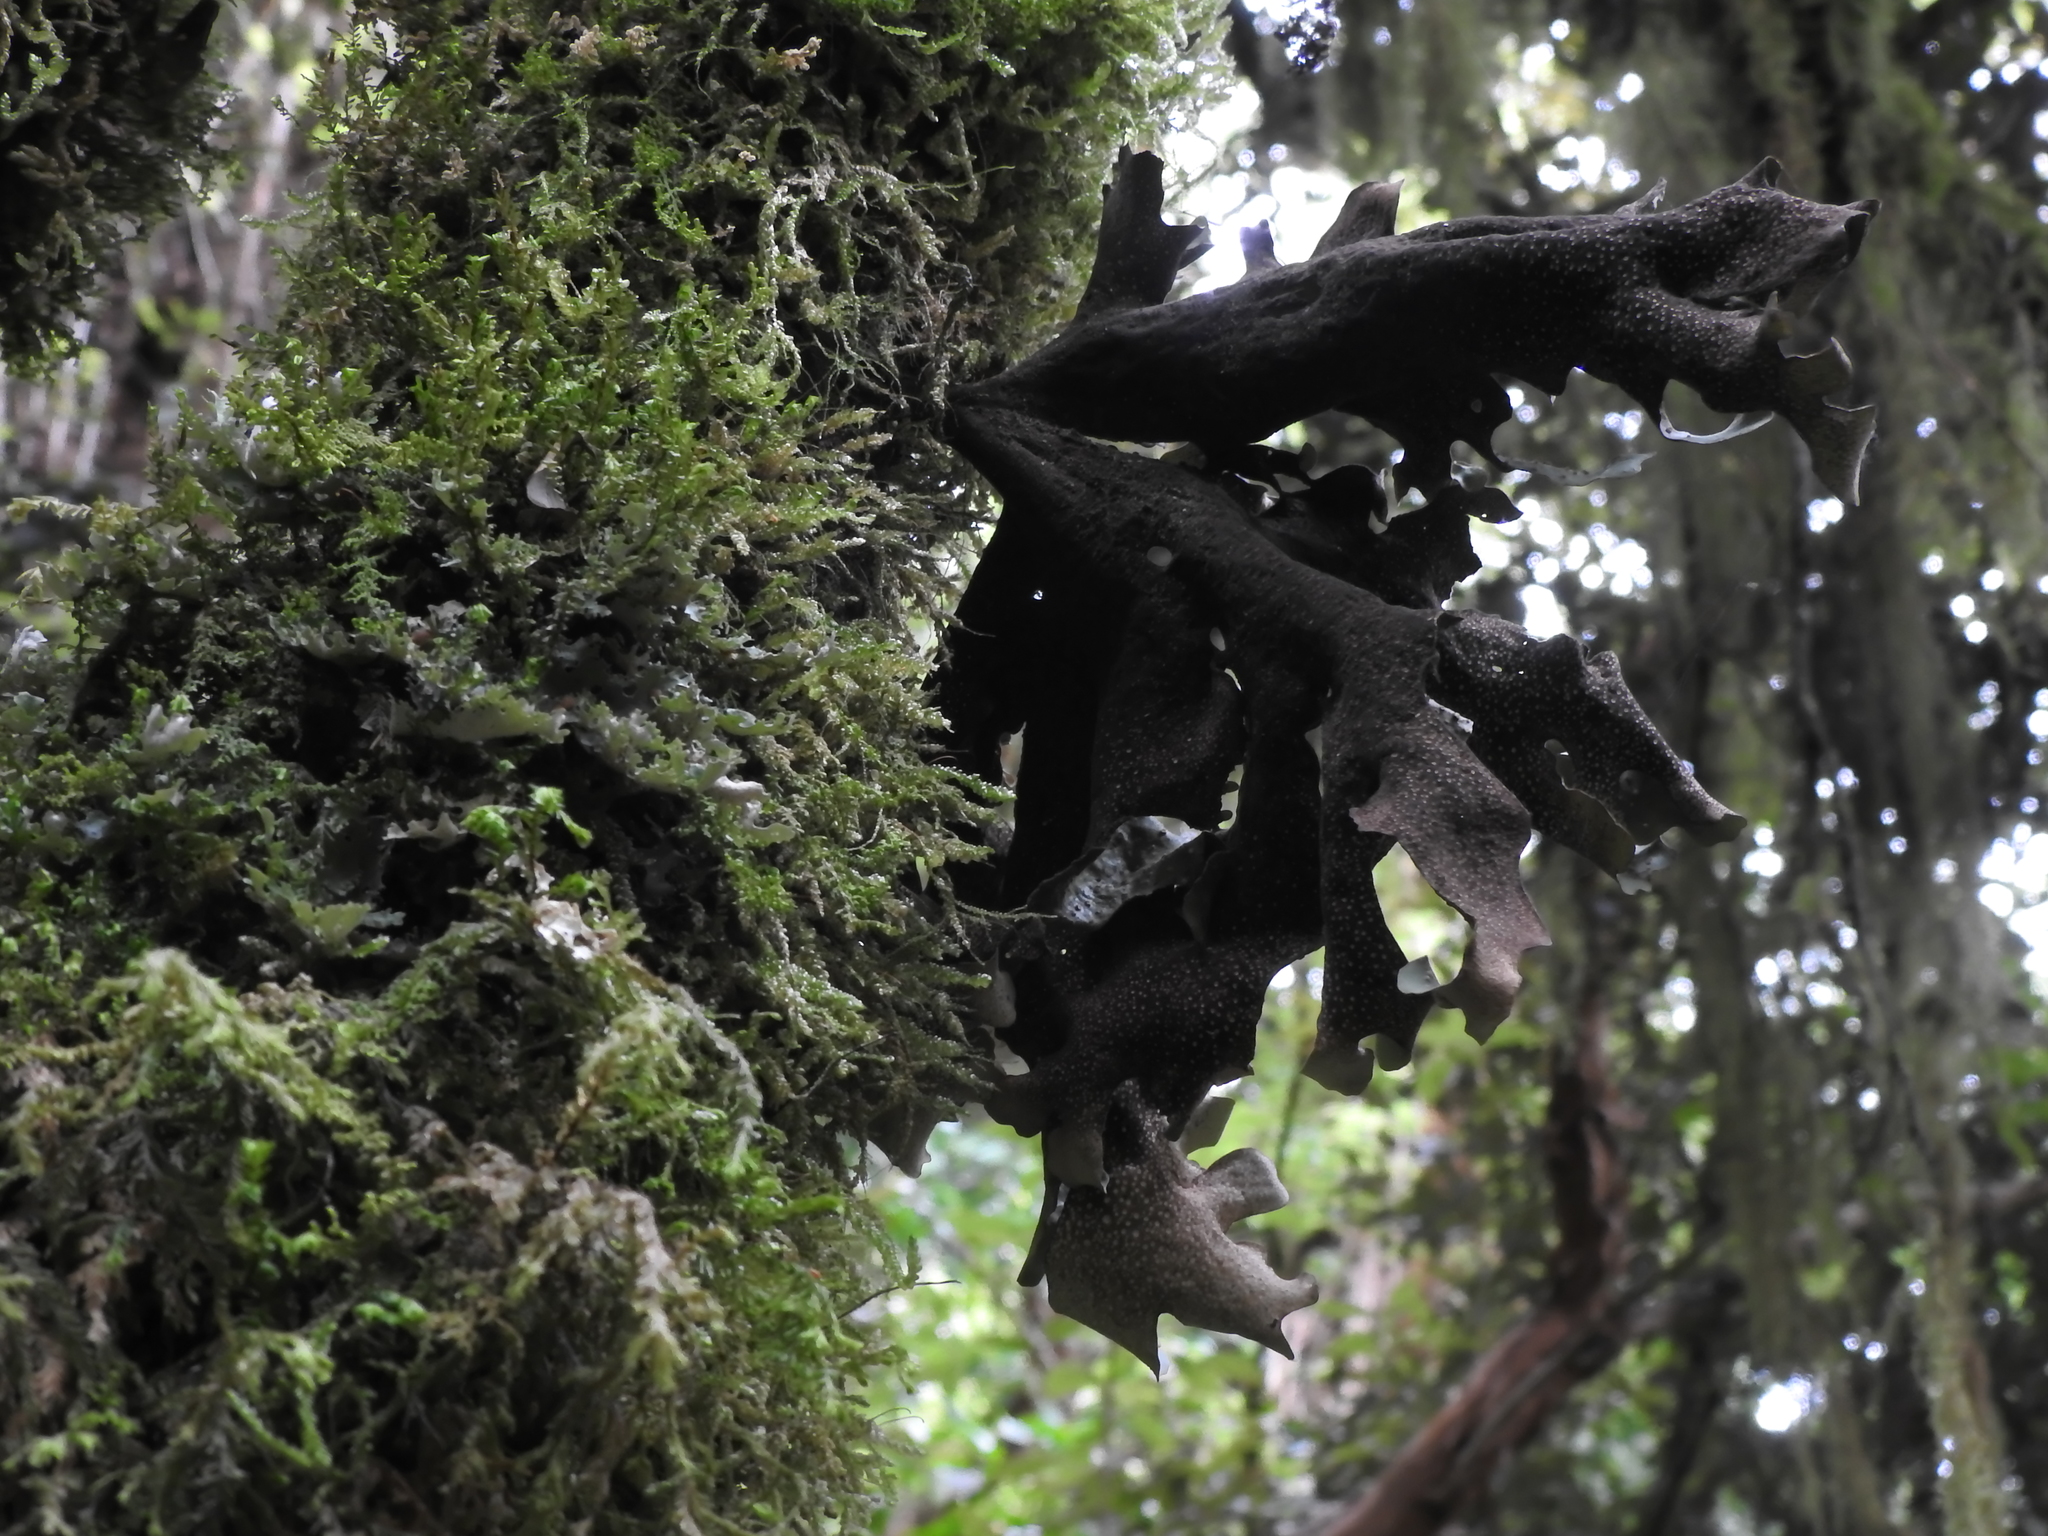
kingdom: Fungi
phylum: Ascomycota
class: Lecanoromycetes
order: Peltigerales
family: Lobariaceae
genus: Sticta
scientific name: Sticta latifrons
